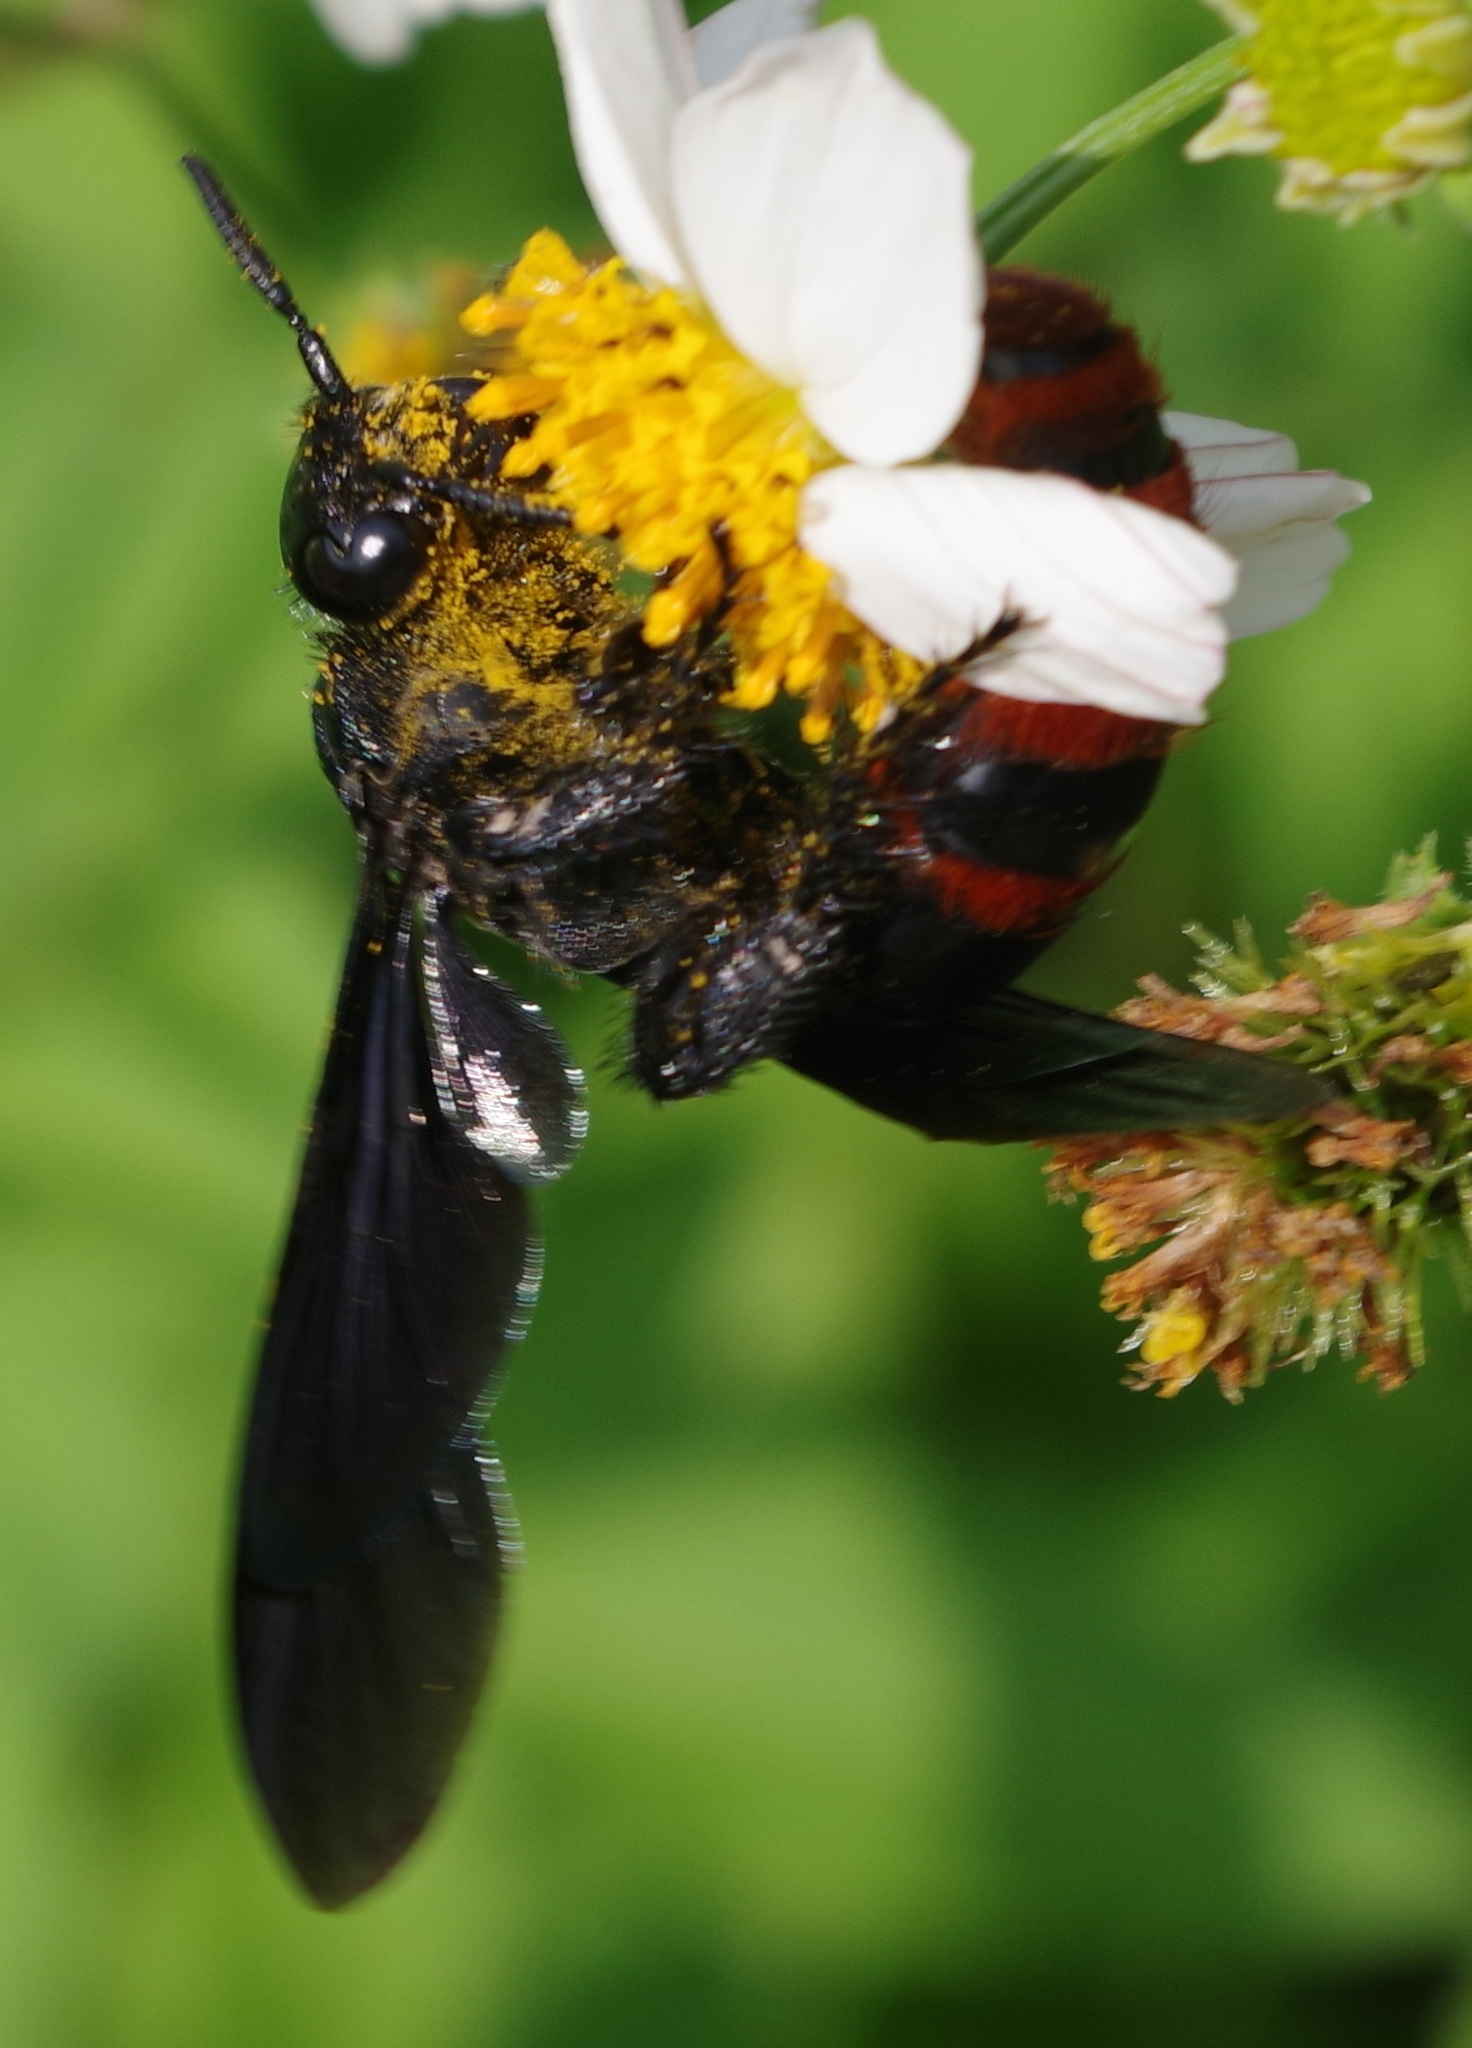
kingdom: Animalia
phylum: Arthropoda
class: Insecta
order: Hymenoptera
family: Scoliidae
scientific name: Scoliidae
